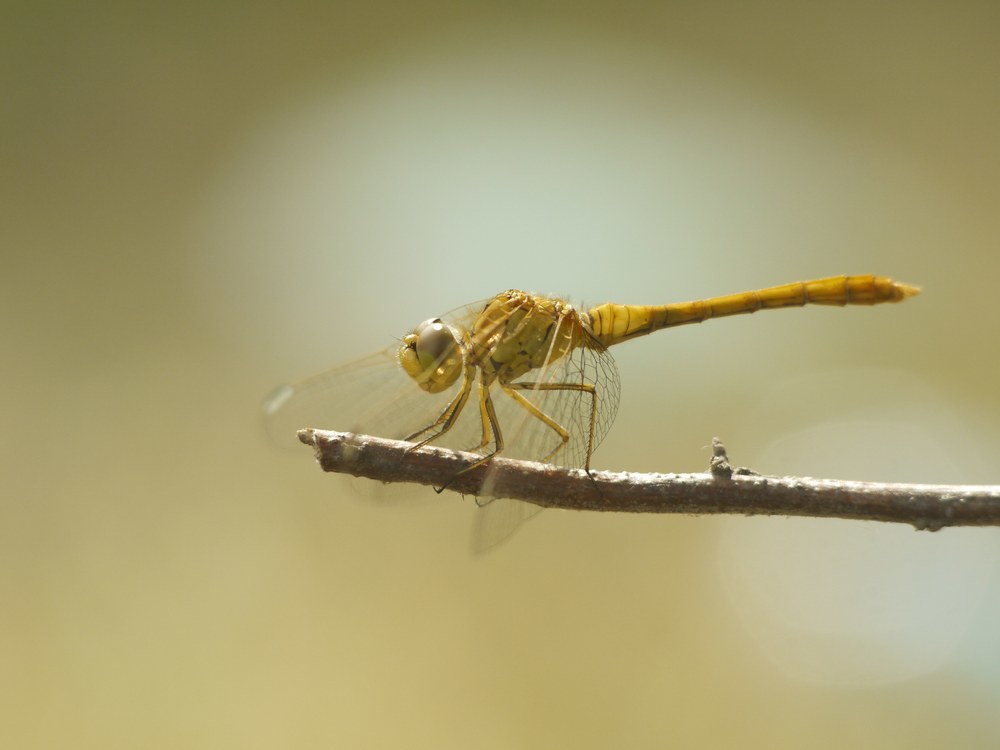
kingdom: Animalia
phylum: Arthropoda
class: Insecta
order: Odonata
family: Libellulidae
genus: Sympetrum
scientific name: Sympetrum meridionale
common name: Southern darter
